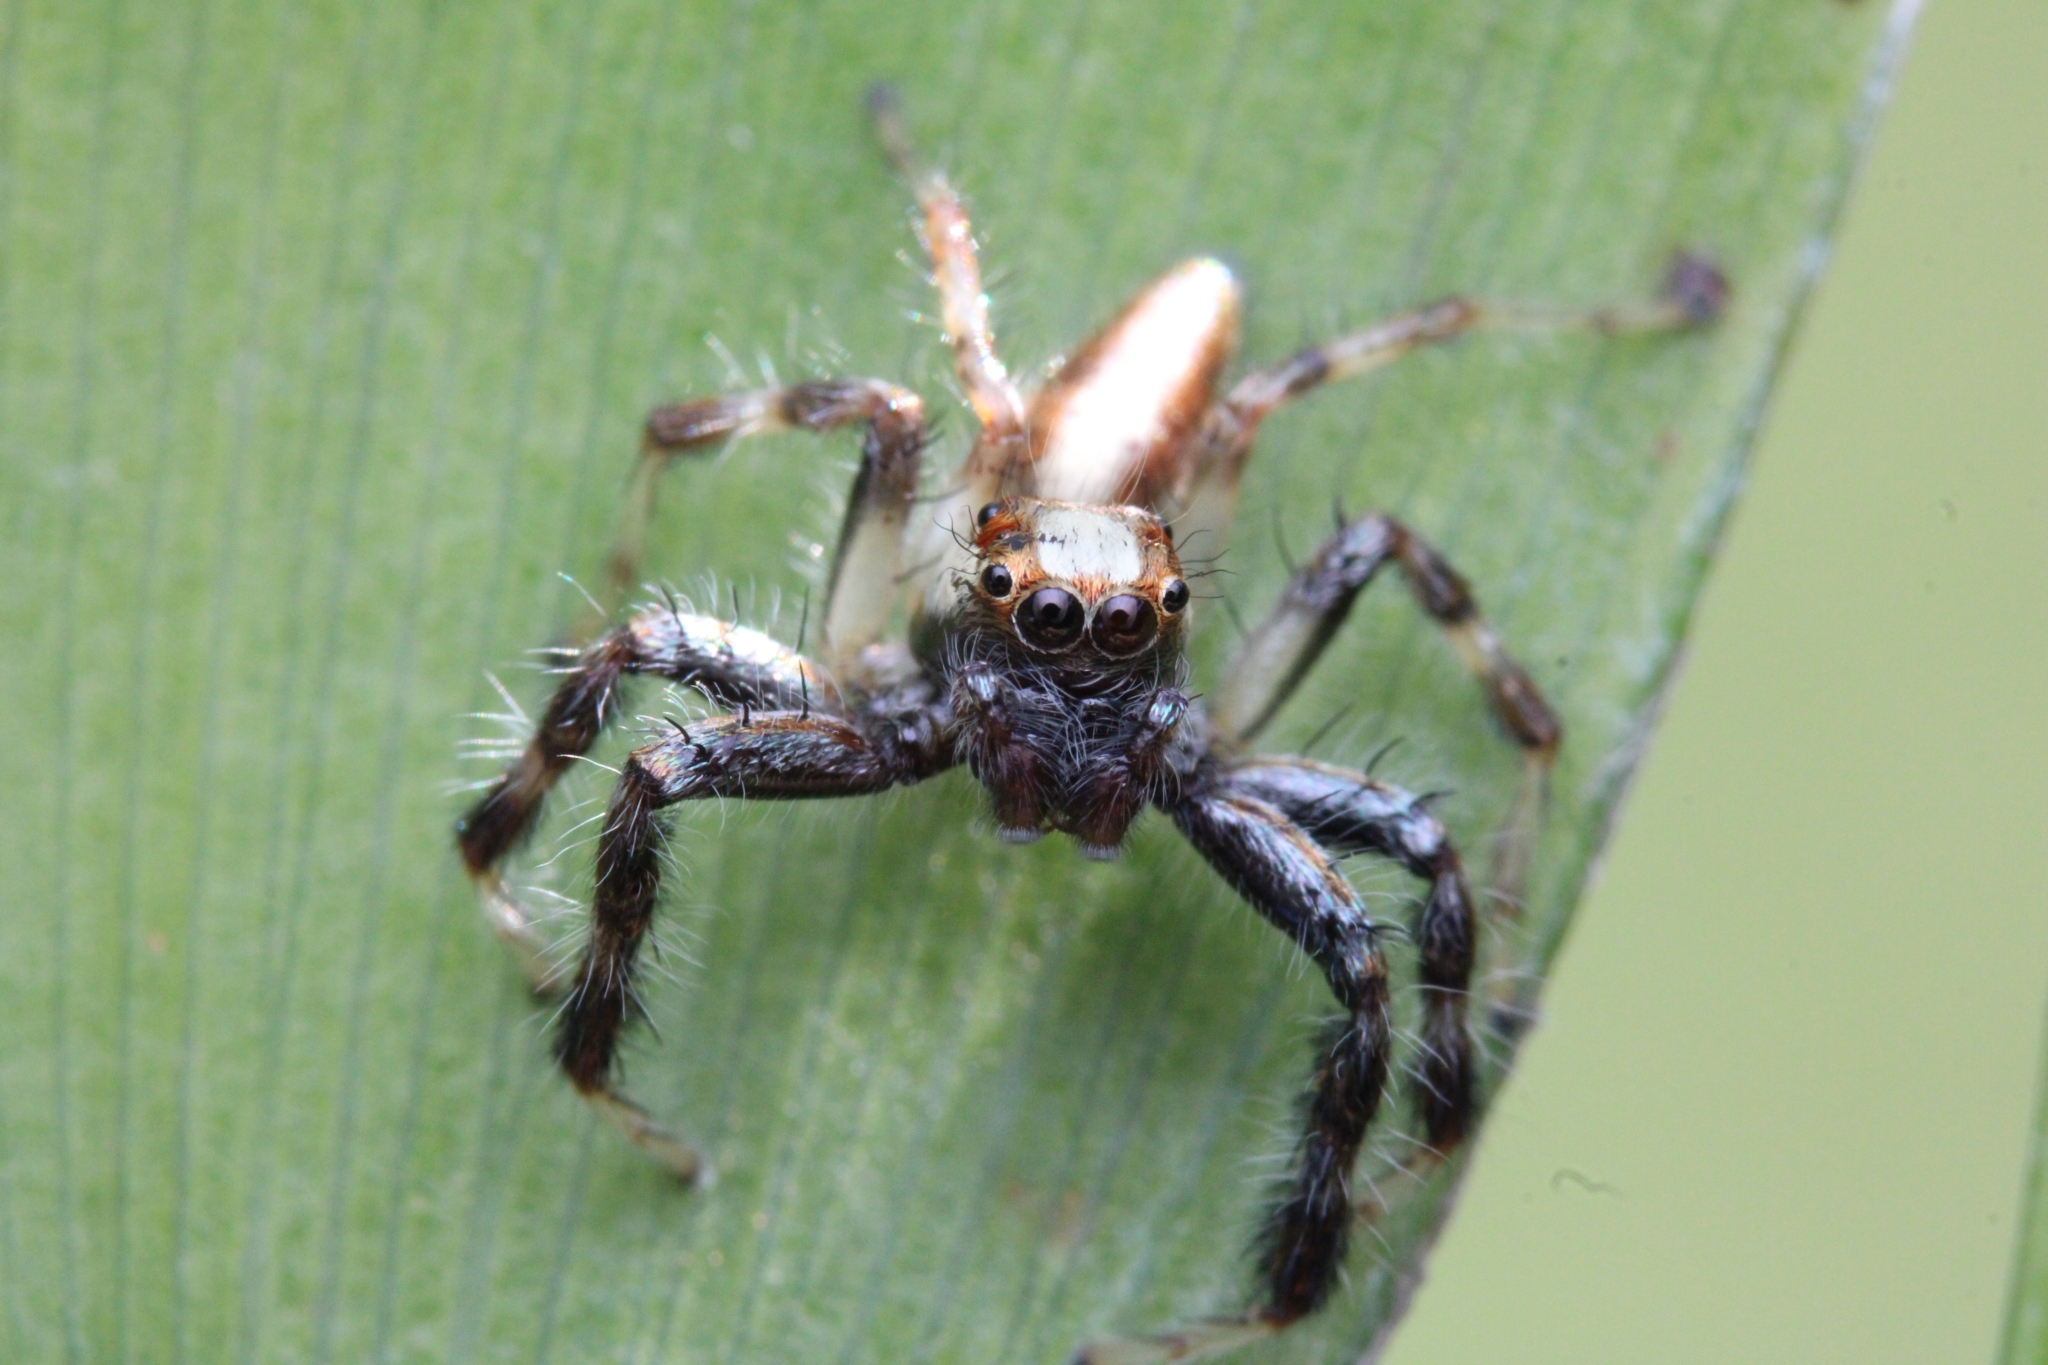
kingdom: Animalia
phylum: Arthropoda
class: Arachnida
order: Araneae
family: Salticidae
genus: Brancus
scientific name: Brancus mustelus
